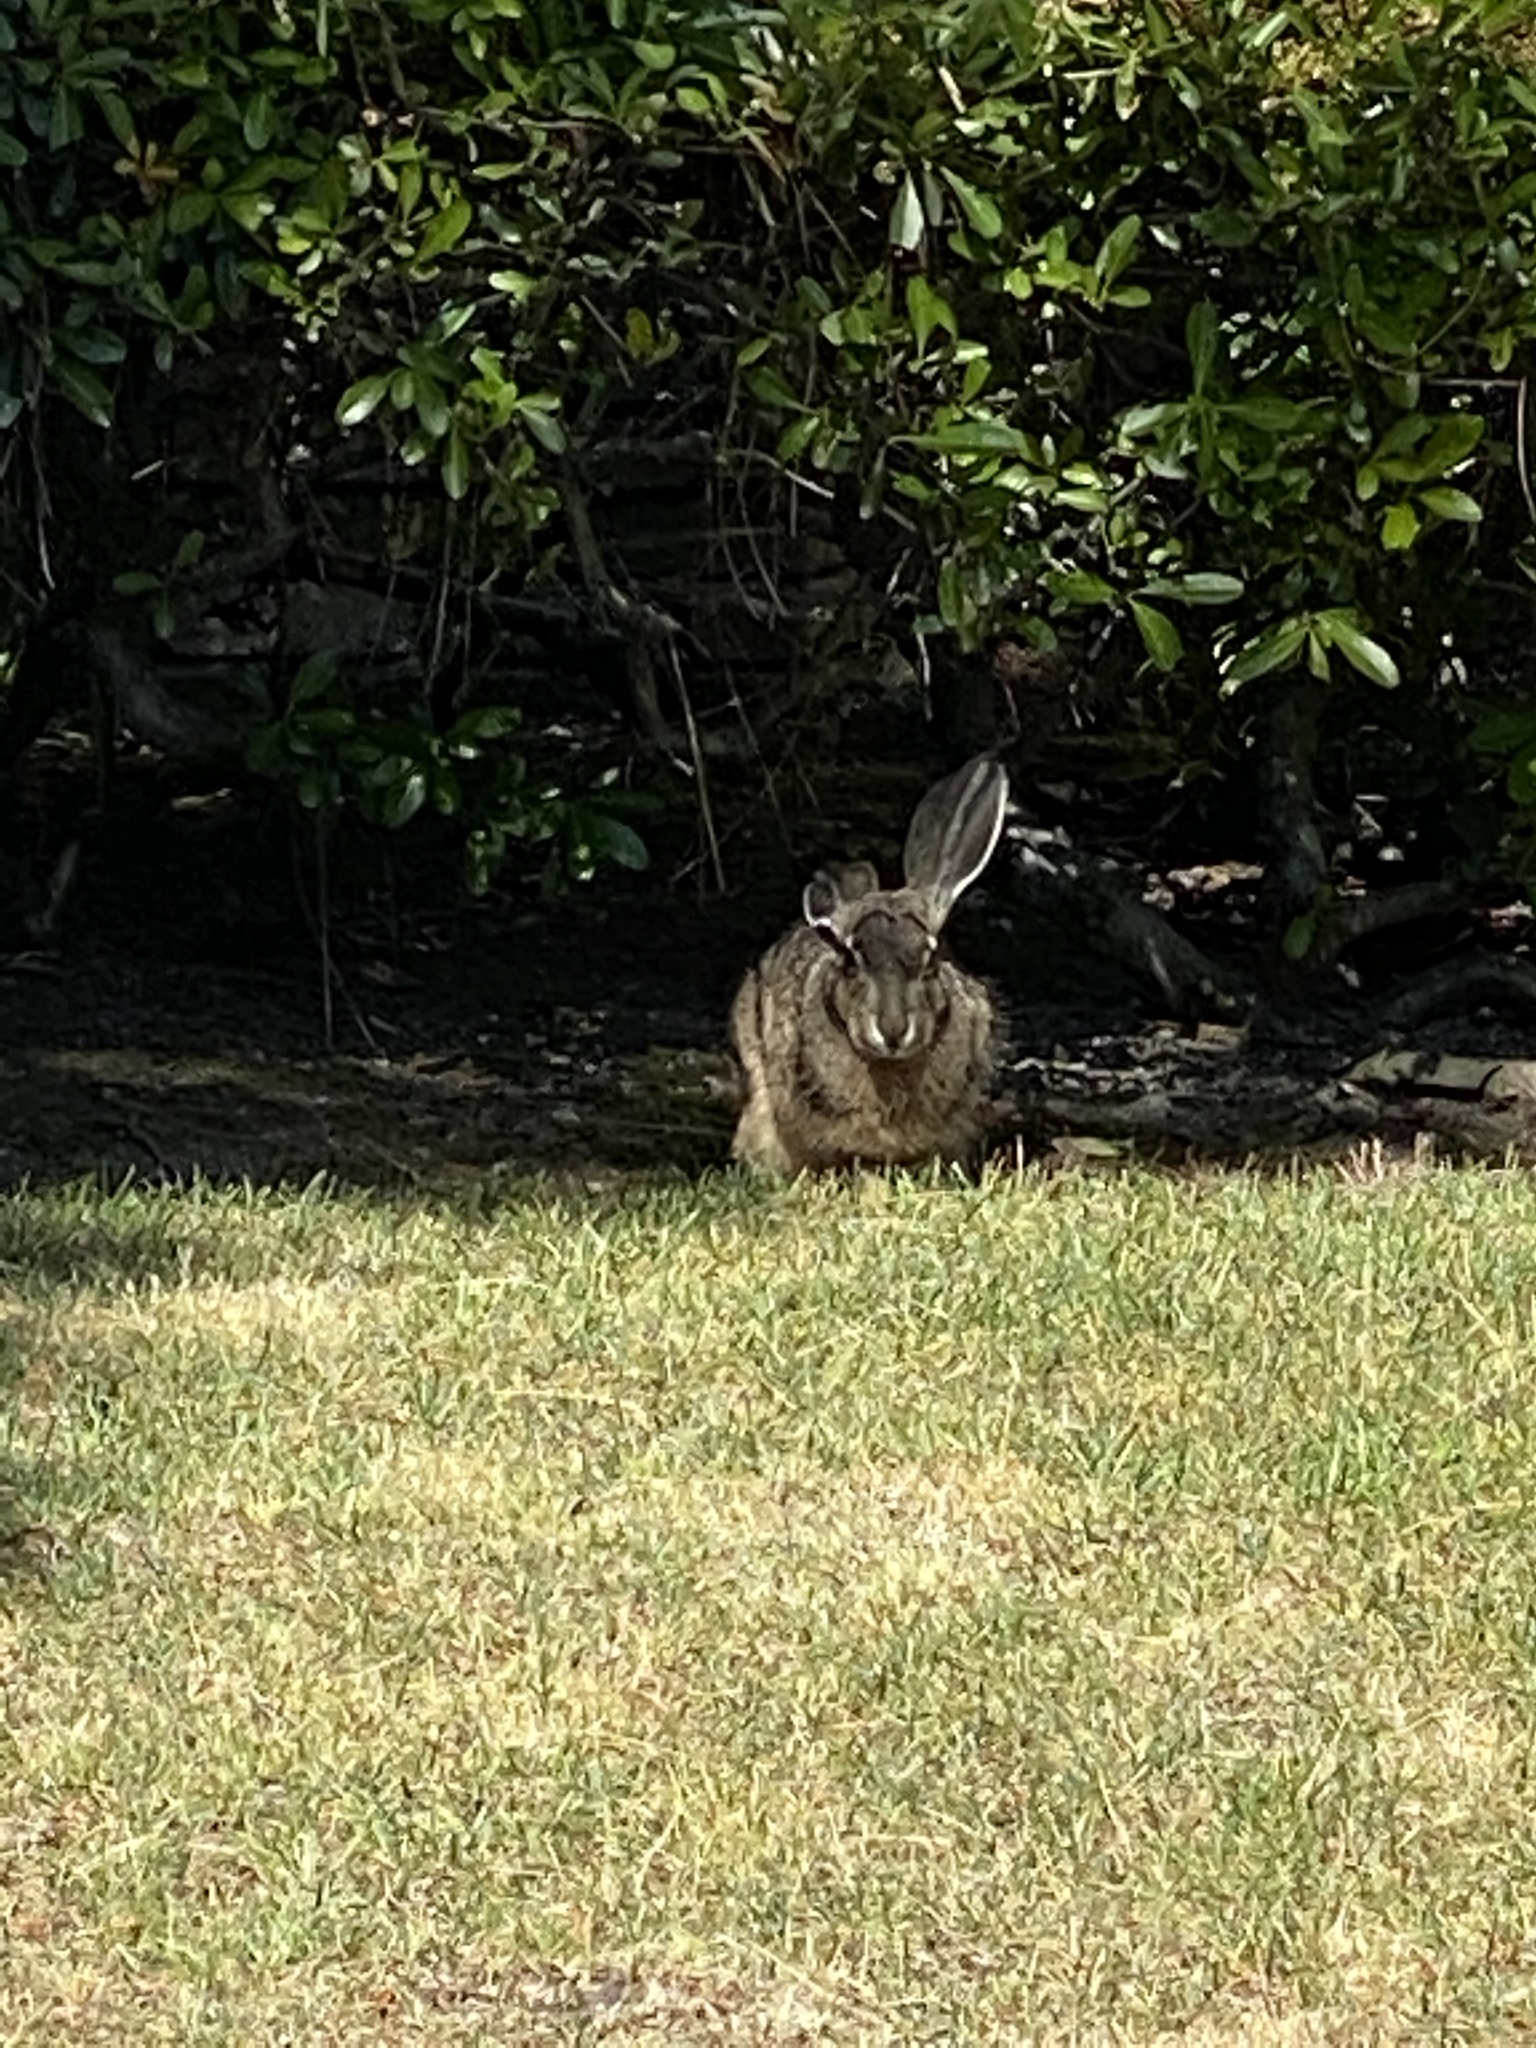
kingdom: Animalia
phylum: Chordata
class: Mammalia
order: Lagomorpha
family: Leporidae
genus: Lepus
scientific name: Lepus californicus
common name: Black-tailed jackrabbit
